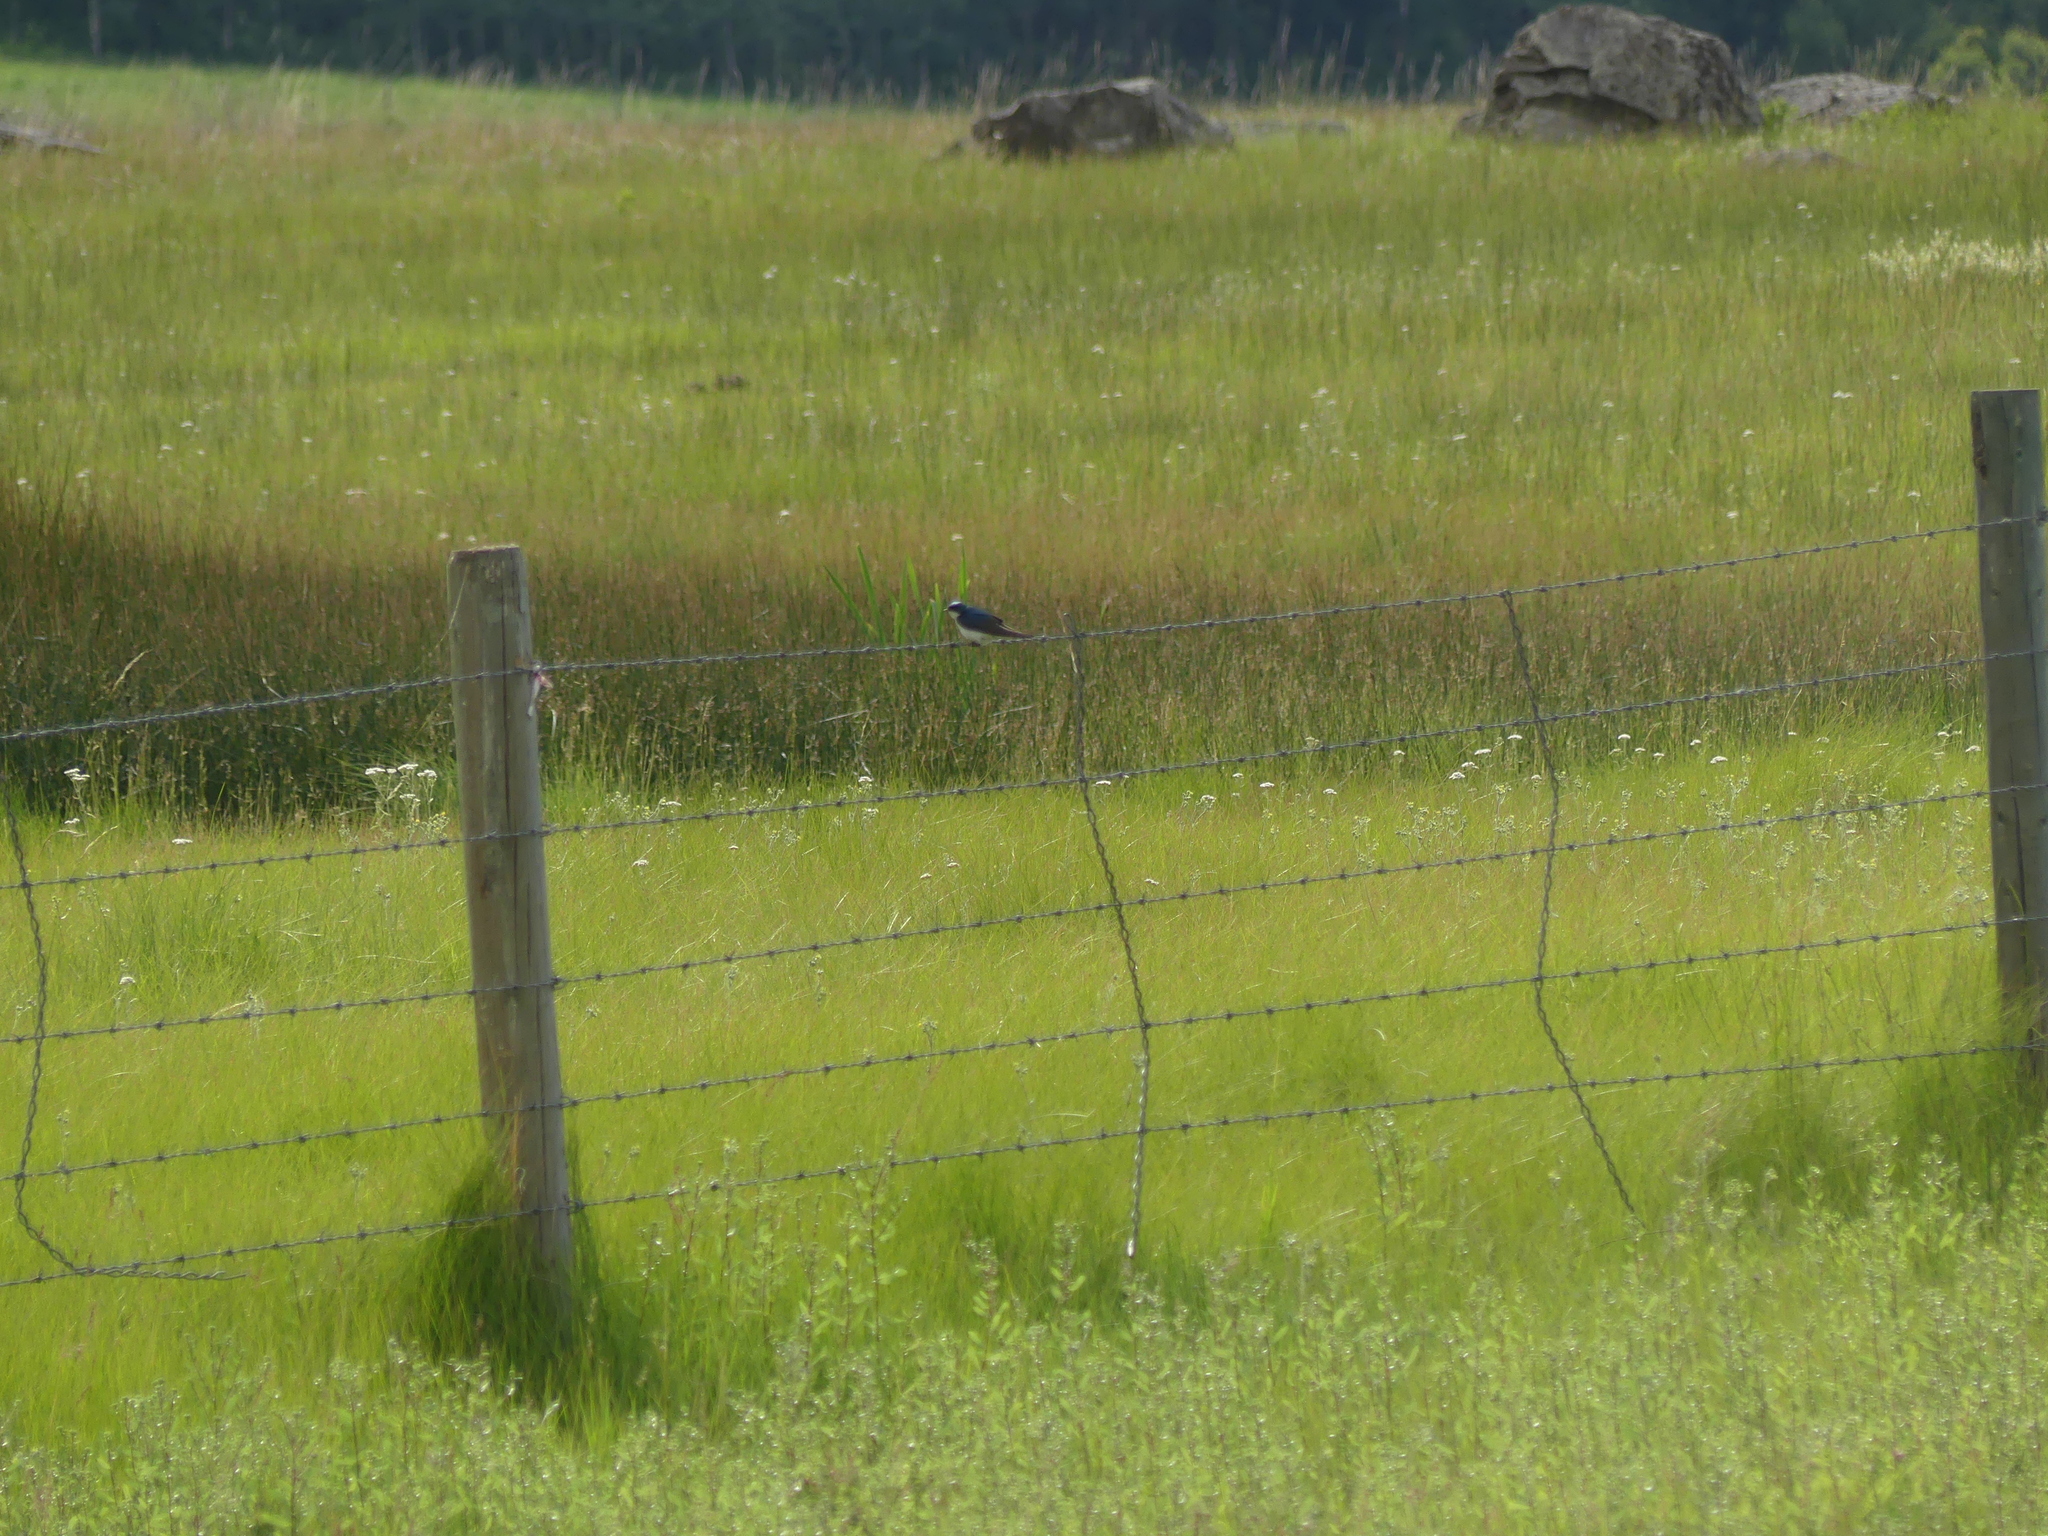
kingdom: Animalia
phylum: Chordata
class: Aves
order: Passeriformes
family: Hirundinidae
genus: Tachycineta
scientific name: Tachycineta bicolor
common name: Tree swallow
